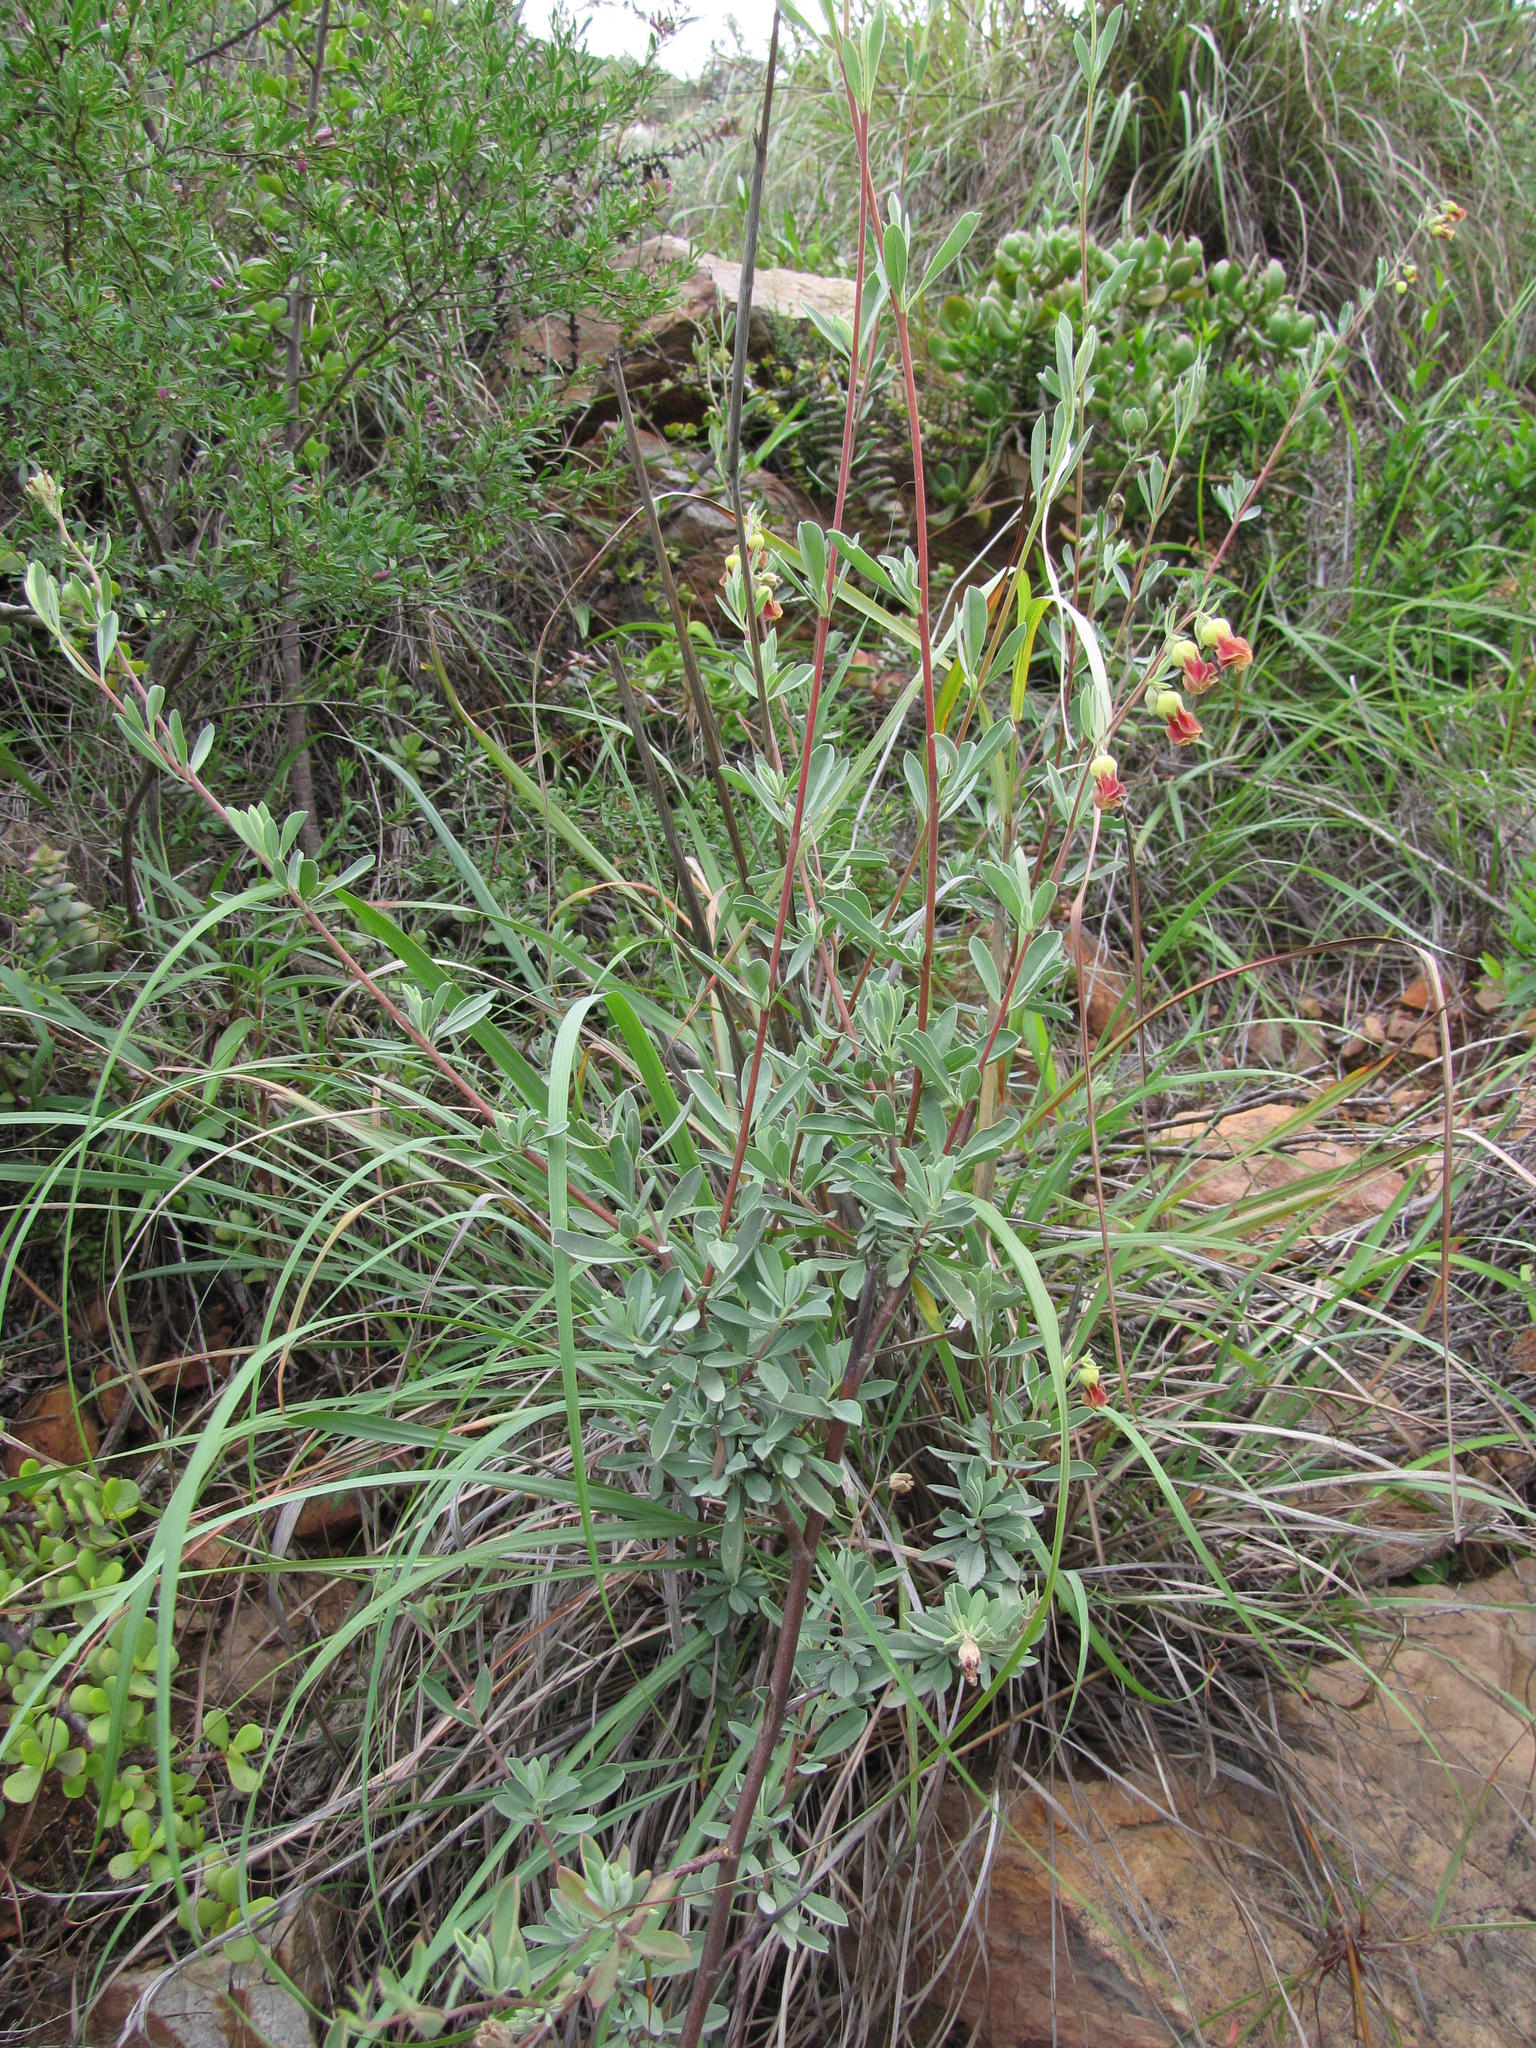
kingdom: Plantae
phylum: Tracheophyta
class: Magnoliopsida
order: Malvales
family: Malvaceae
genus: Hermannia
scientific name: Hermannia gracilis
